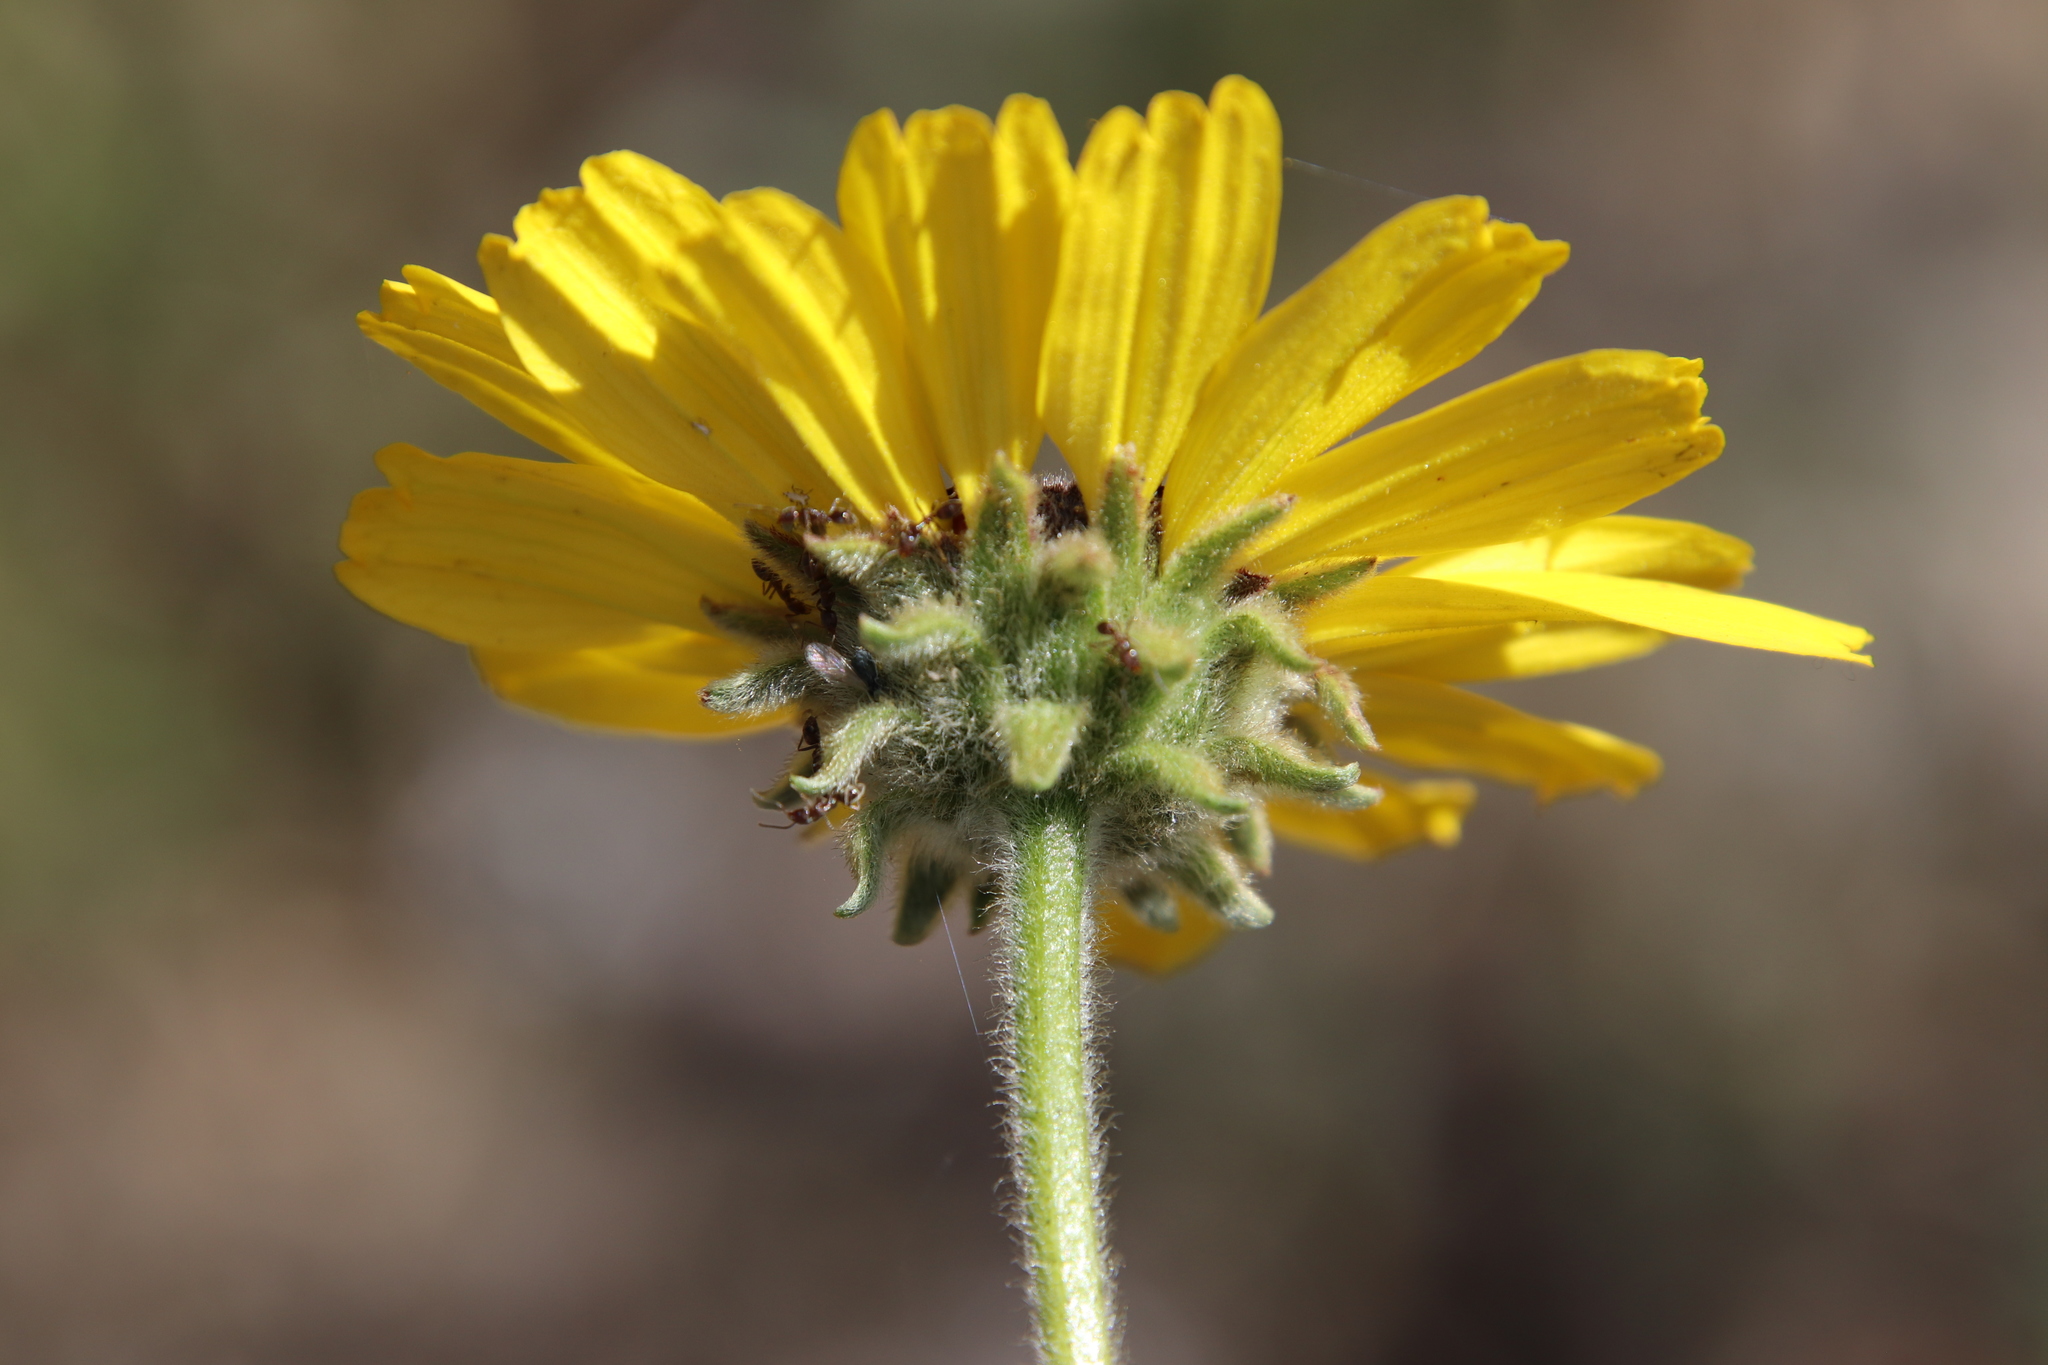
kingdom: Plantae
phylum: Tracheophyta
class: Magnoliopsida
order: Asterales
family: Asteraceae
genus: Encelia
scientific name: Encelia californica
